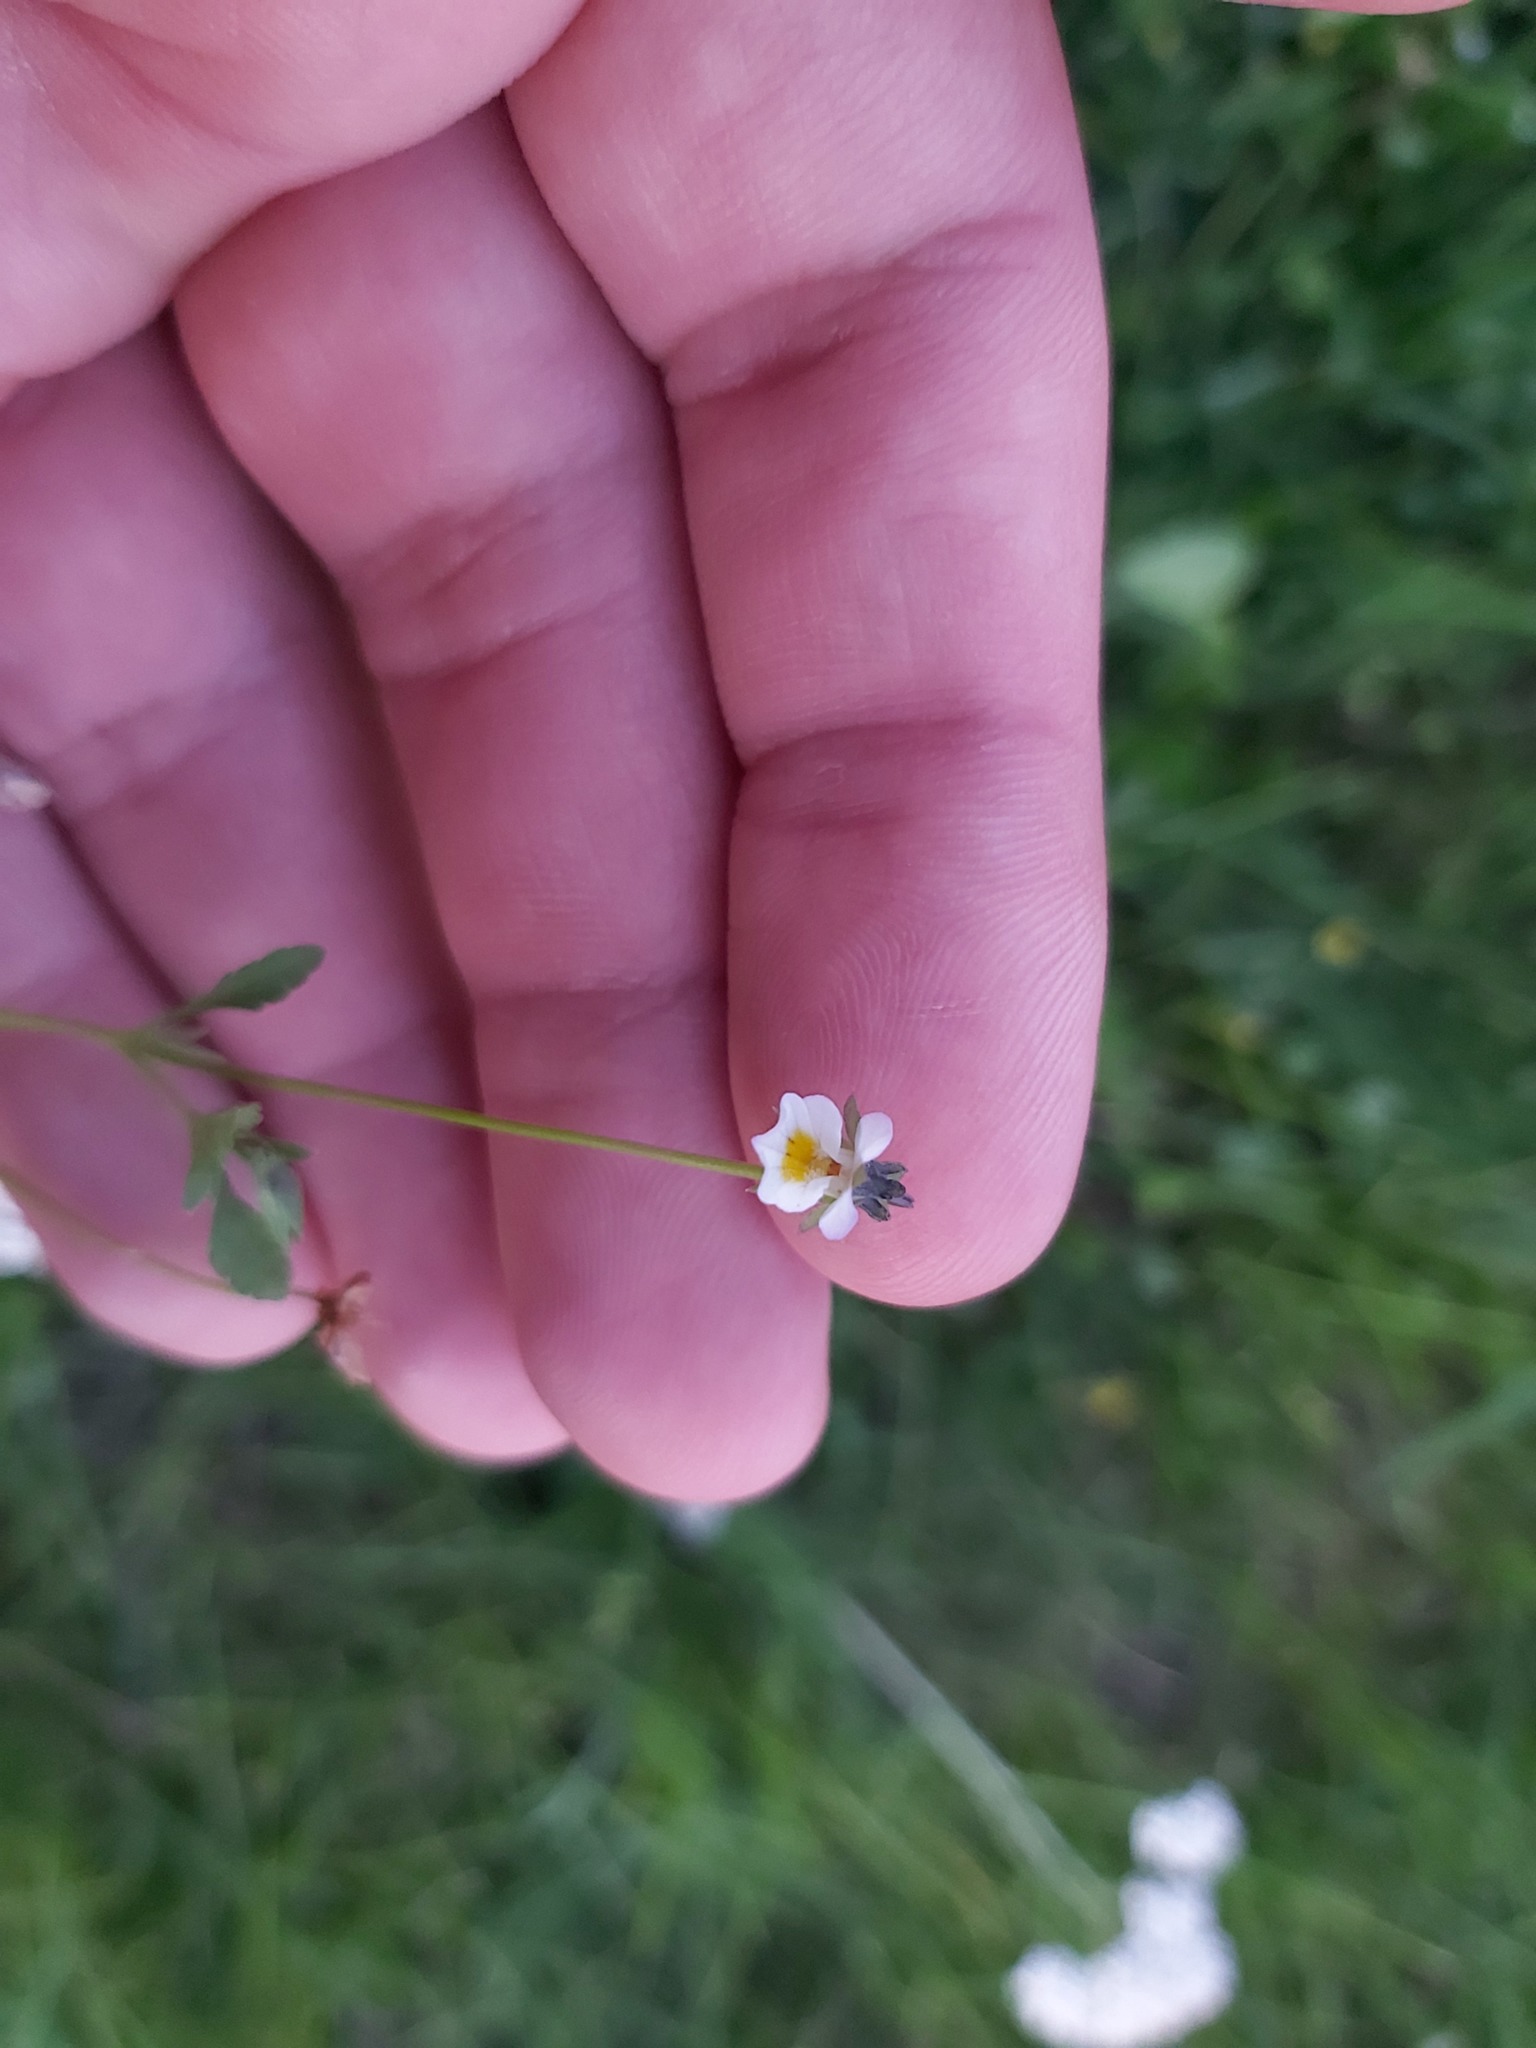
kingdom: Plantae
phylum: Tracheophyta
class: Magnoliopsida
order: Malpighiales
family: Violaceae
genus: Viola
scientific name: Viola arvensis
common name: Field pansy
